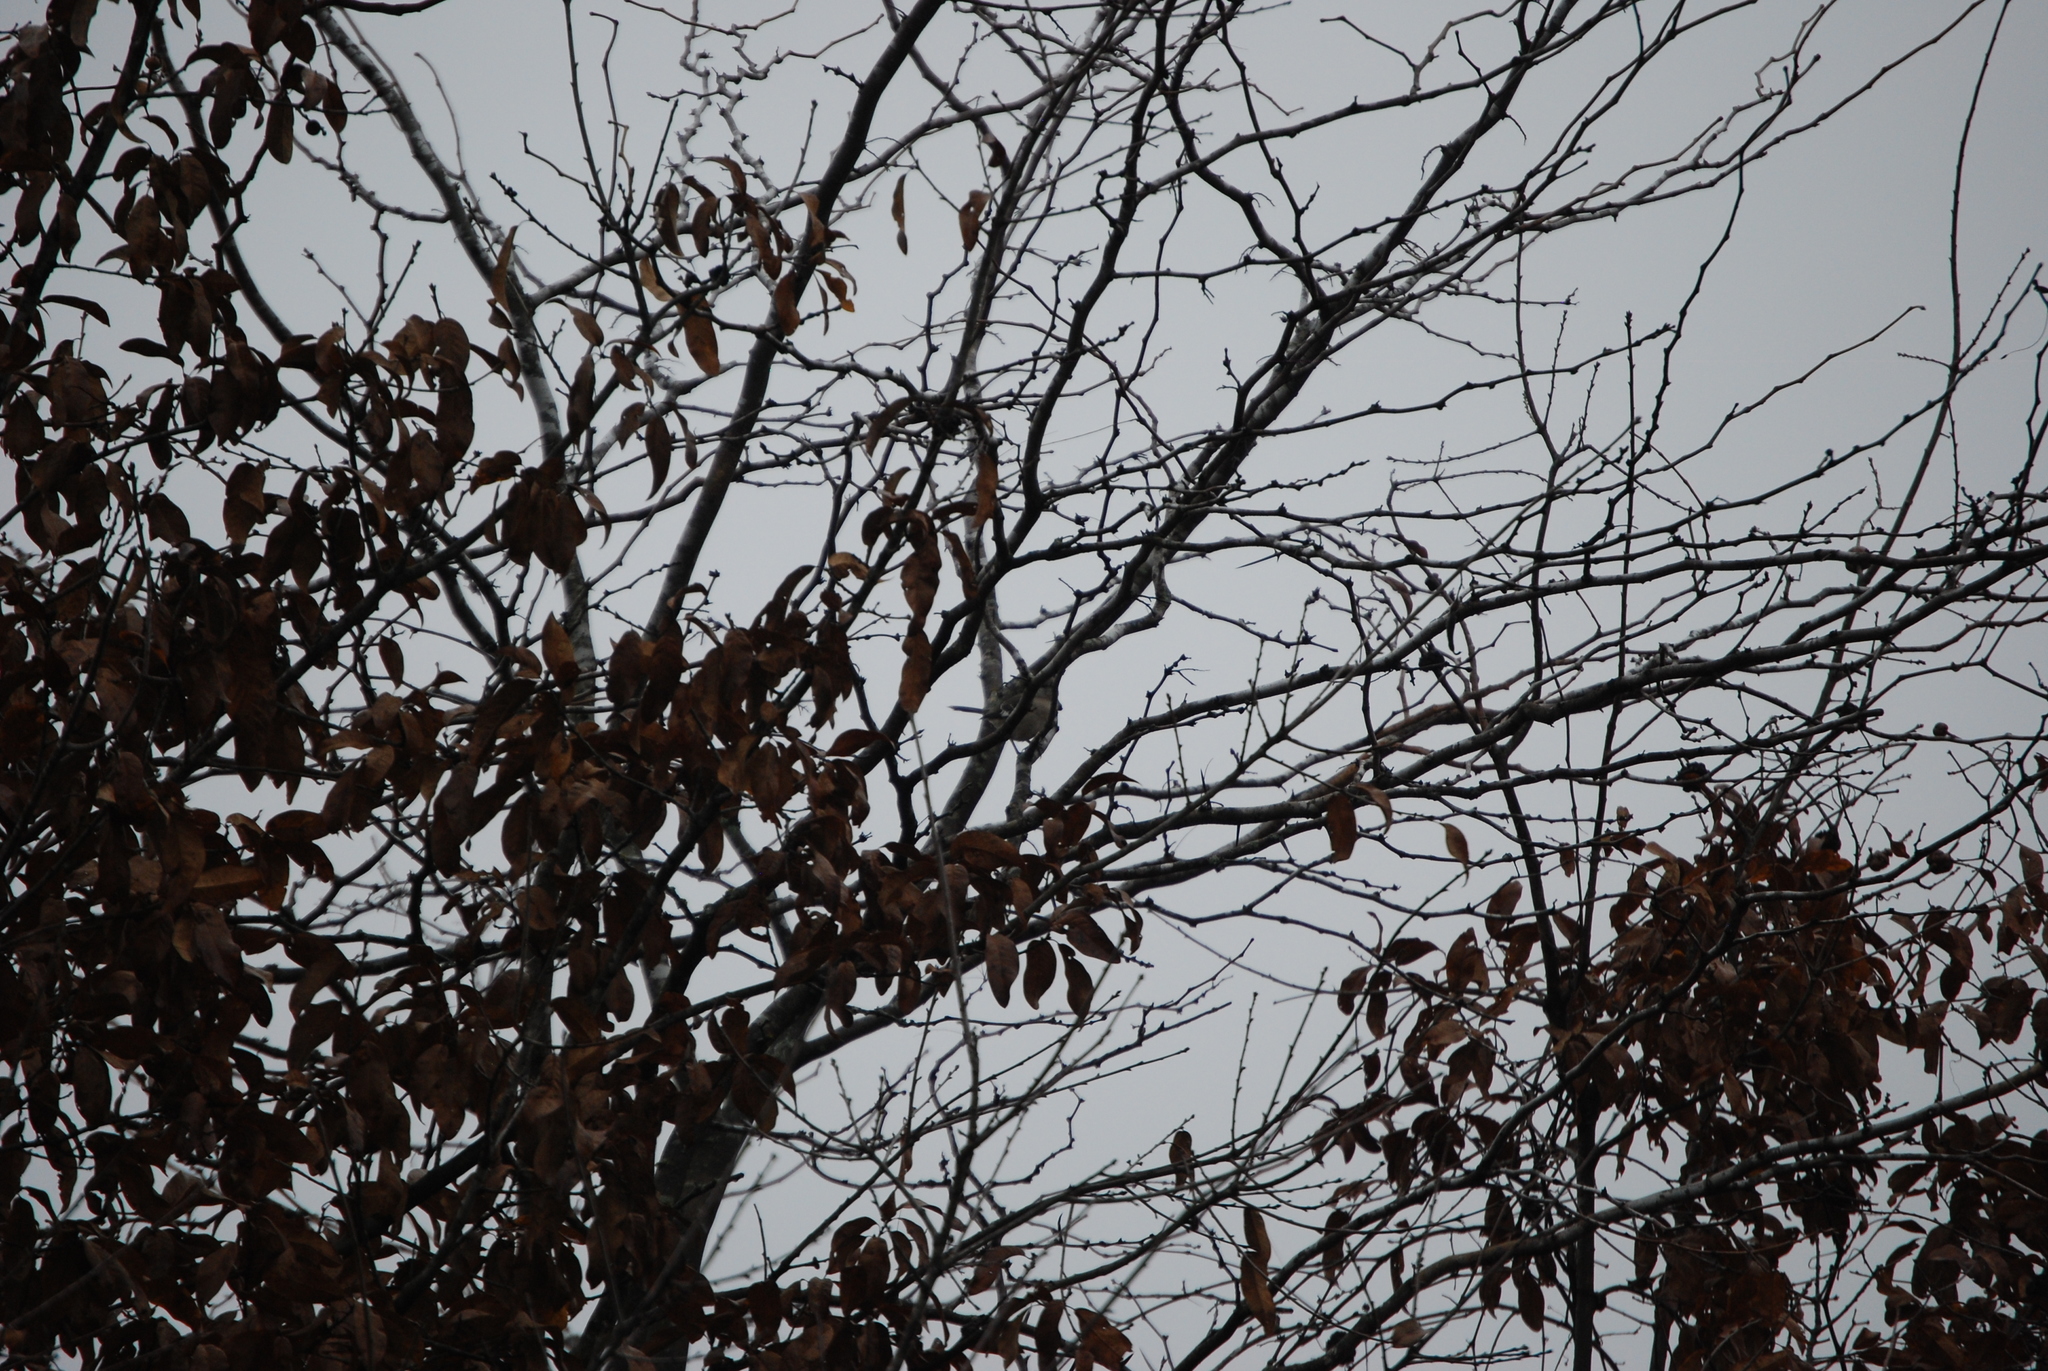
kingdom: Animalia
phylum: Chordata
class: Aves
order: Passeriformes
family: Mimidae
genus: Mimus
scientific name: Mimus polyglottos
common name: Northern mockingbird
